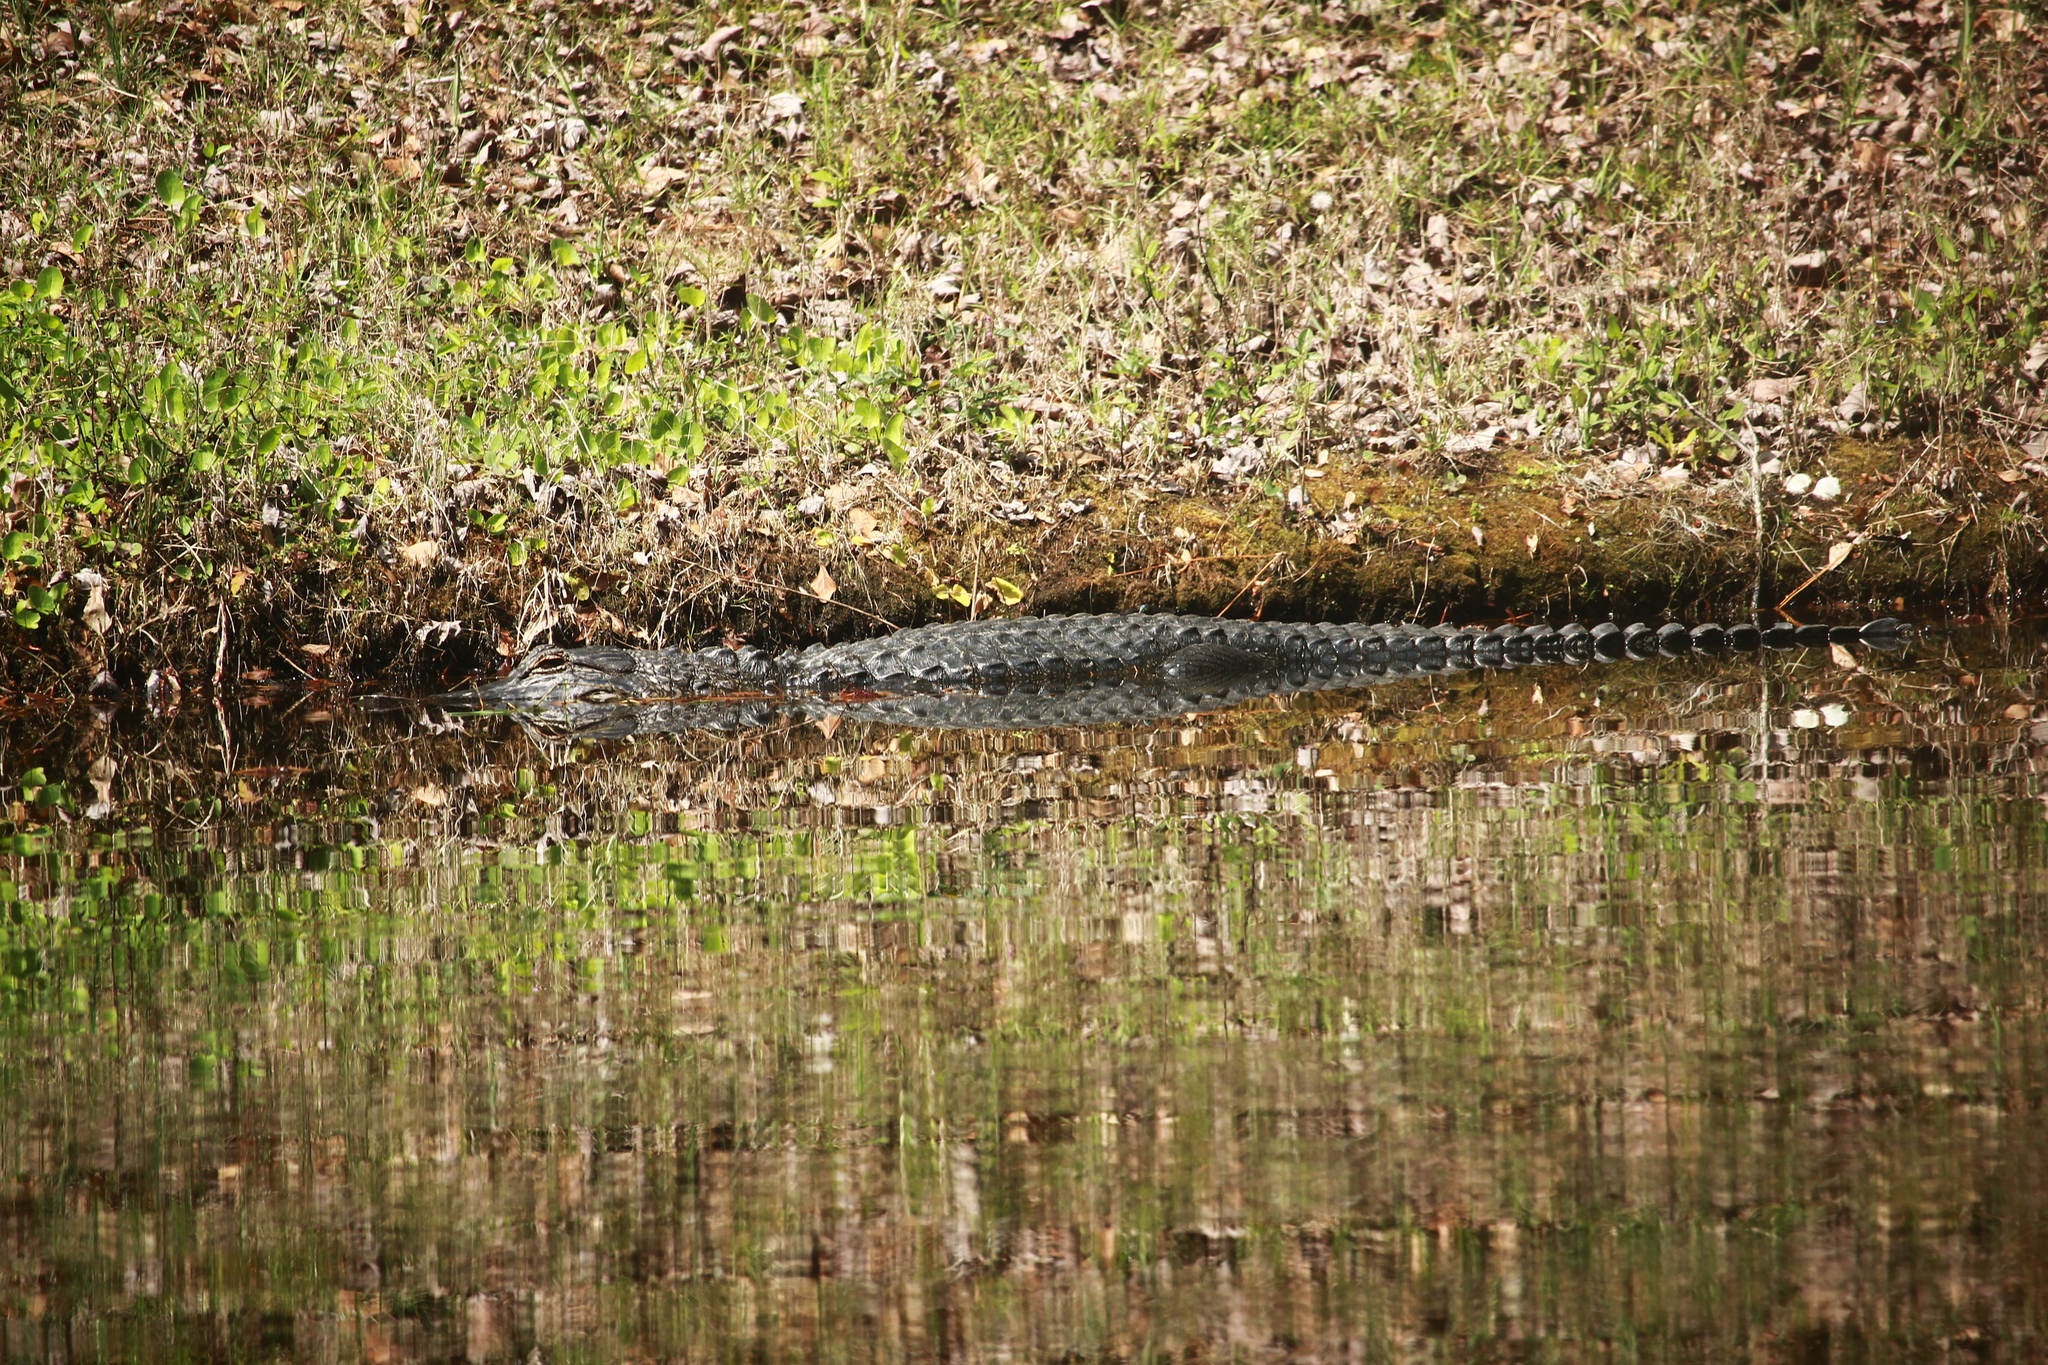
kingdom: Animalia
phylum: Chordata
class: Crocodylia
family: Alligatoridae
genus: Alligator
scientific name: Alligator mississippiensis
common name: American alligator
